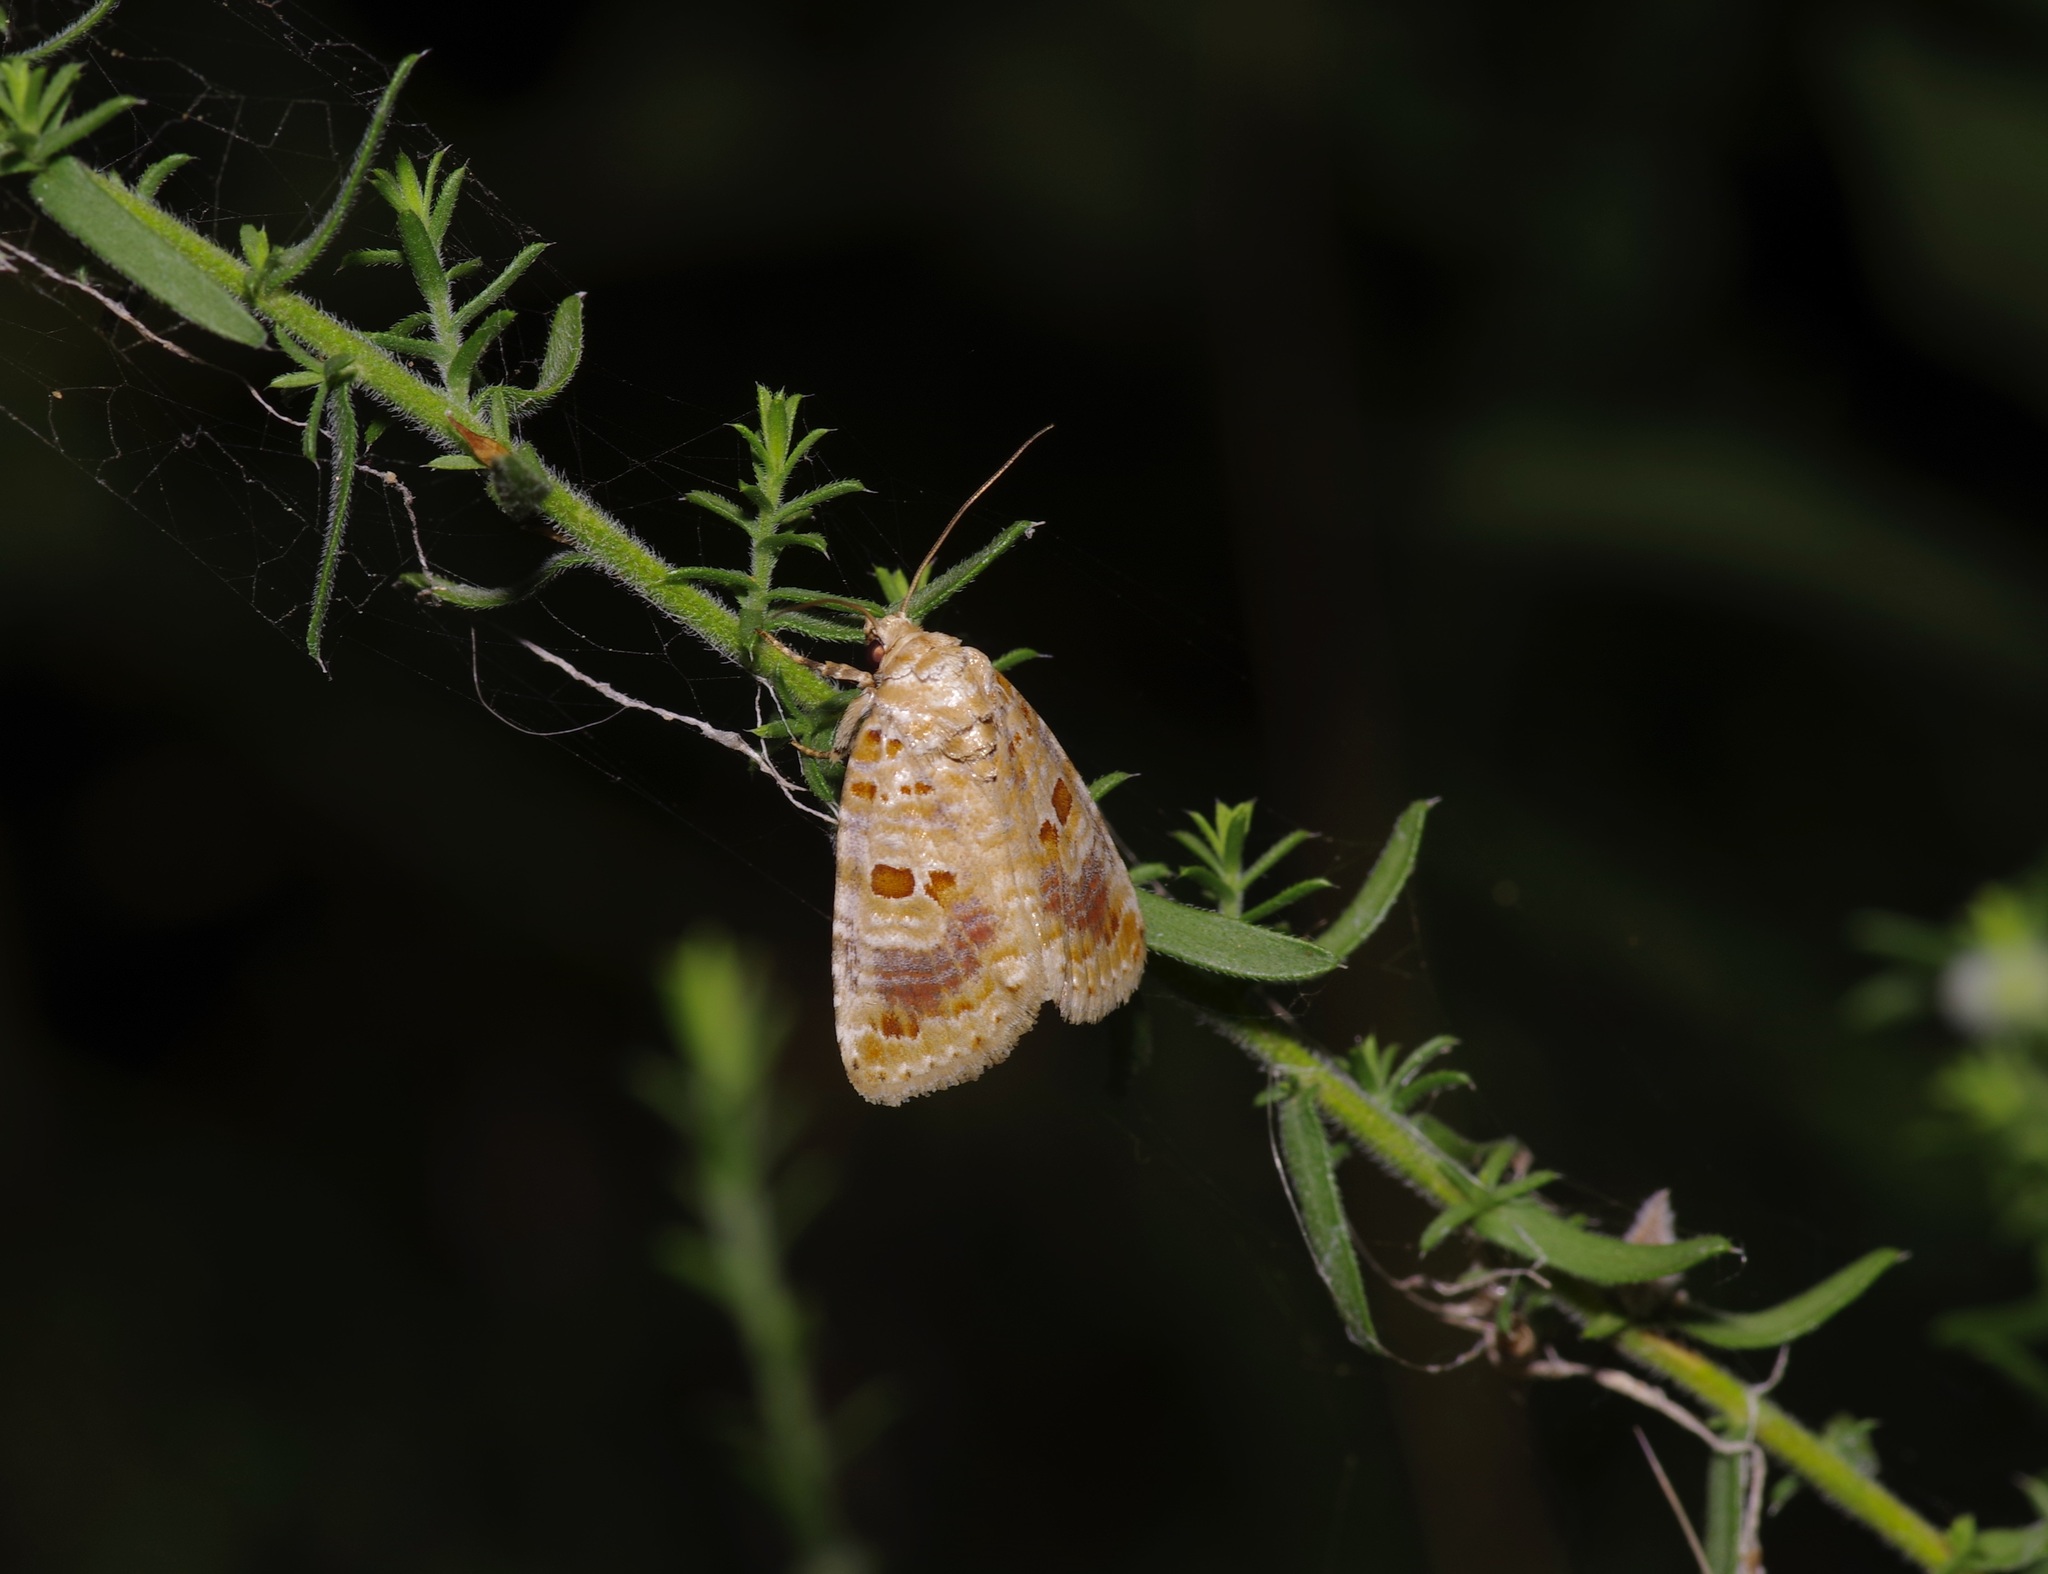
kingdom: Animalia
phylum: Arthropoda
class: Insecta
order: Lepidoptera
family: Noctuidae
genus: Diastema
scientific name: Diastema tigris
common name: Lantana moth
